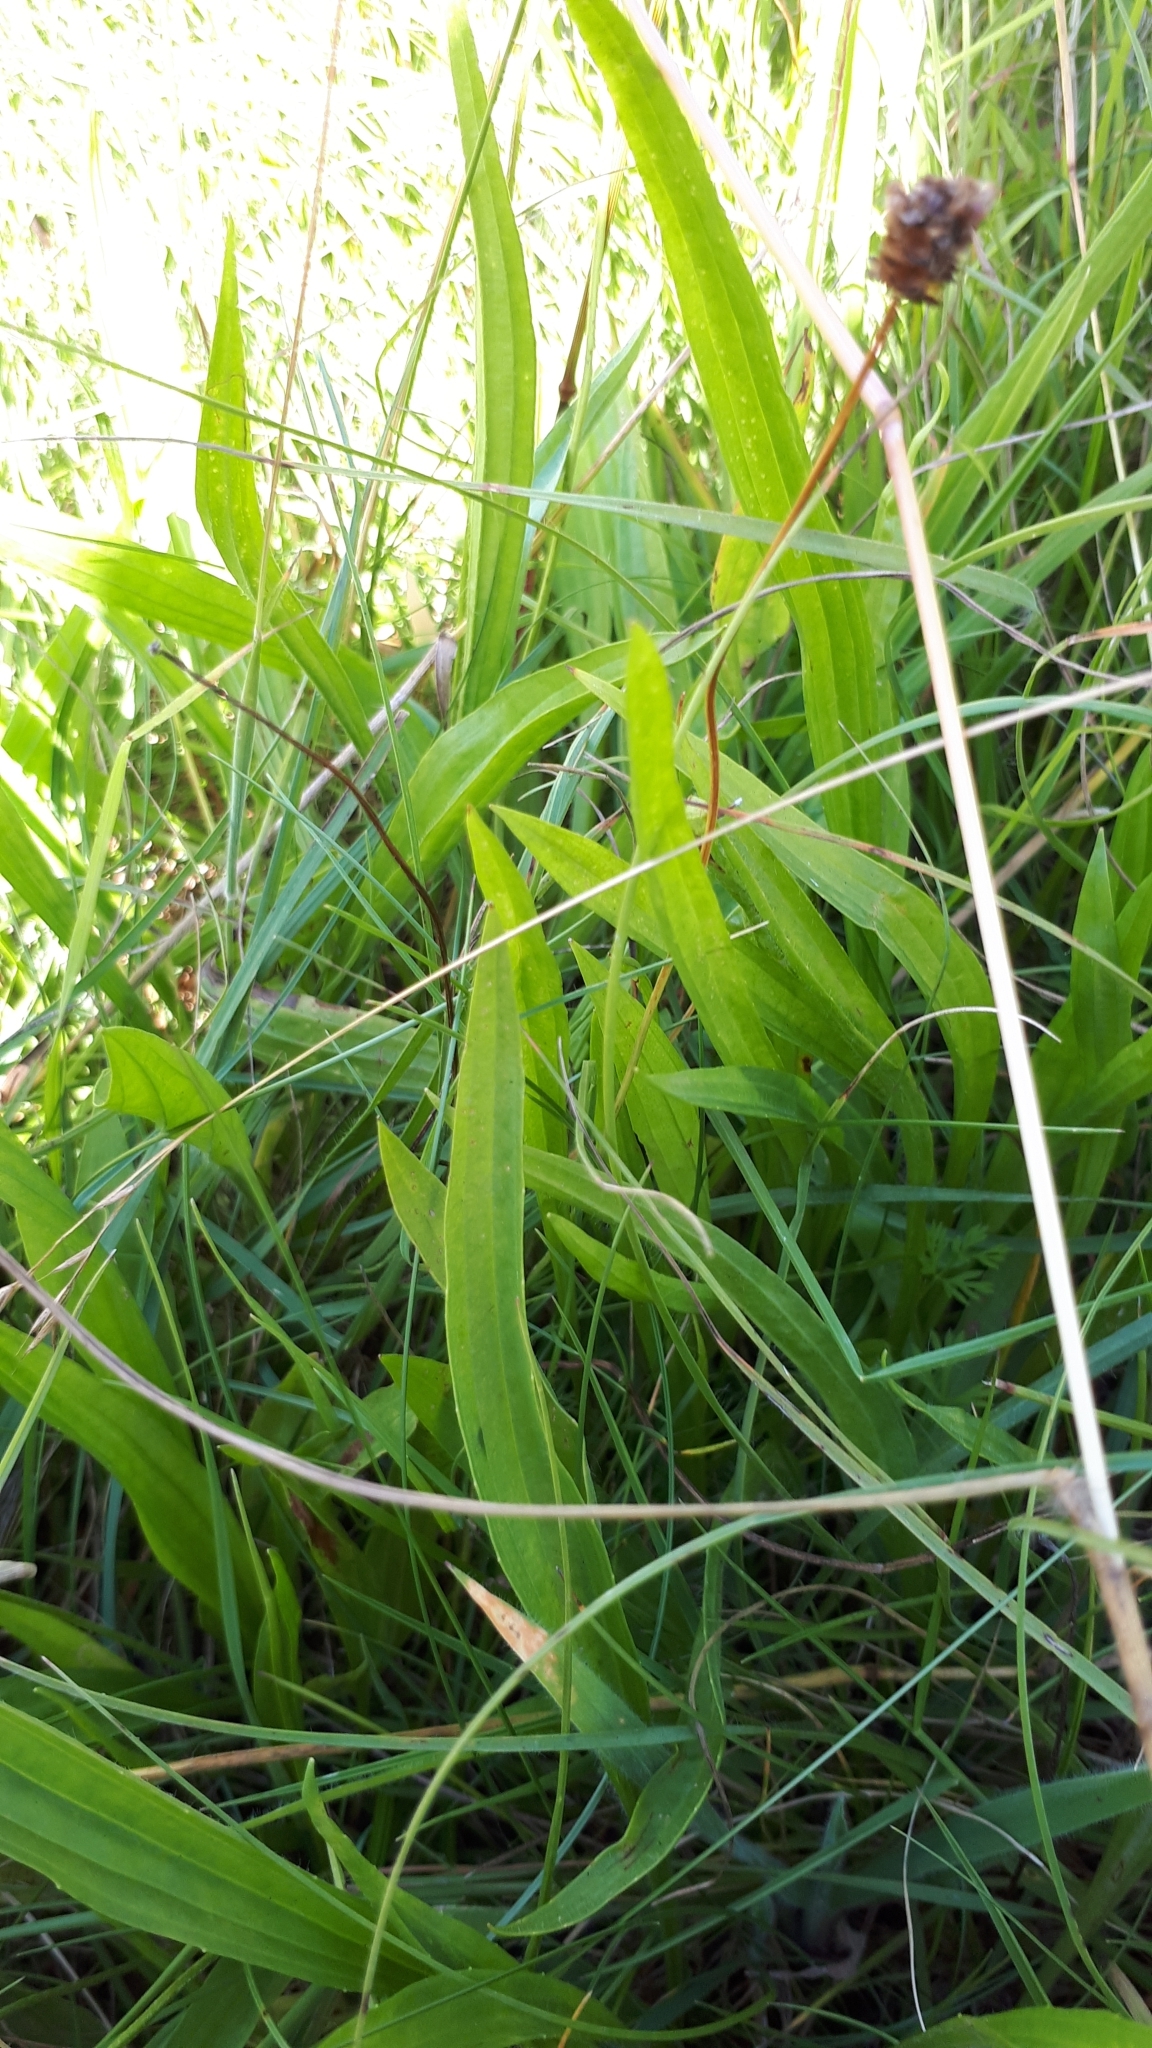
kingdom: Plantae
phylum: Tracheophyta
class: Magnoliopsida
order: Lamiales
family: Plantaginaceae
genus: Plantago
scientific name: Plantago lanceolata
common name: Ribwort plantain
